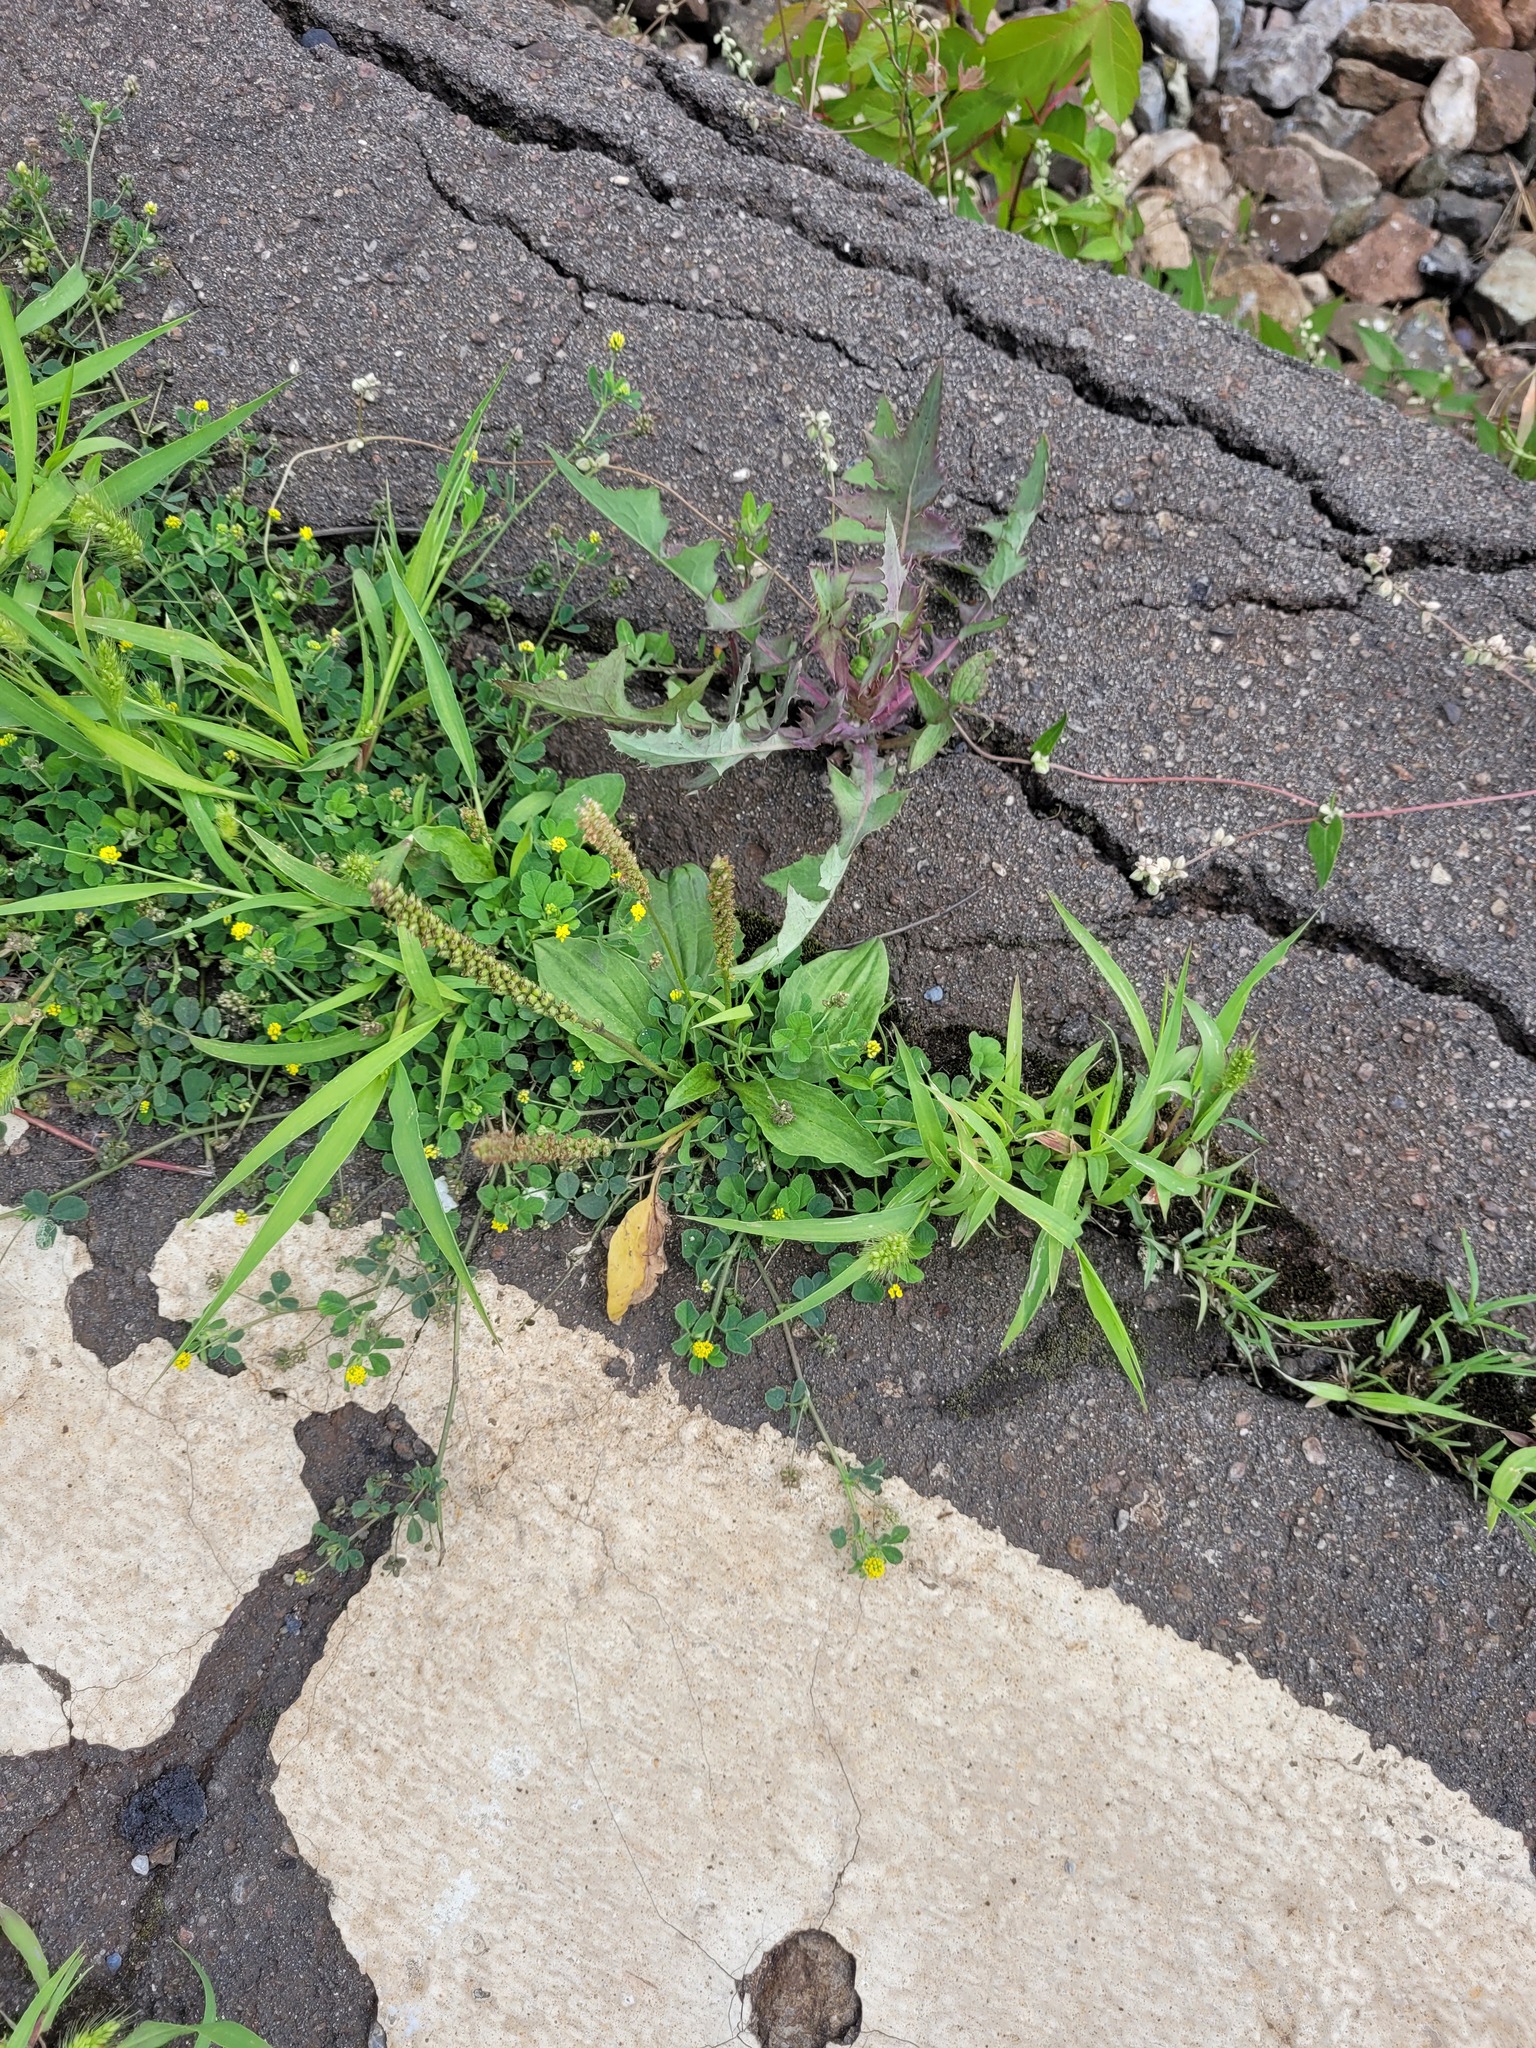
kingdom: Plantae
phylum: Tracheophyta
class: Magnoliopsida
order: Lamiales
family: Plantaginaceae
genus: Plantago
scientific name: Plantago major
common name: Common plantain
